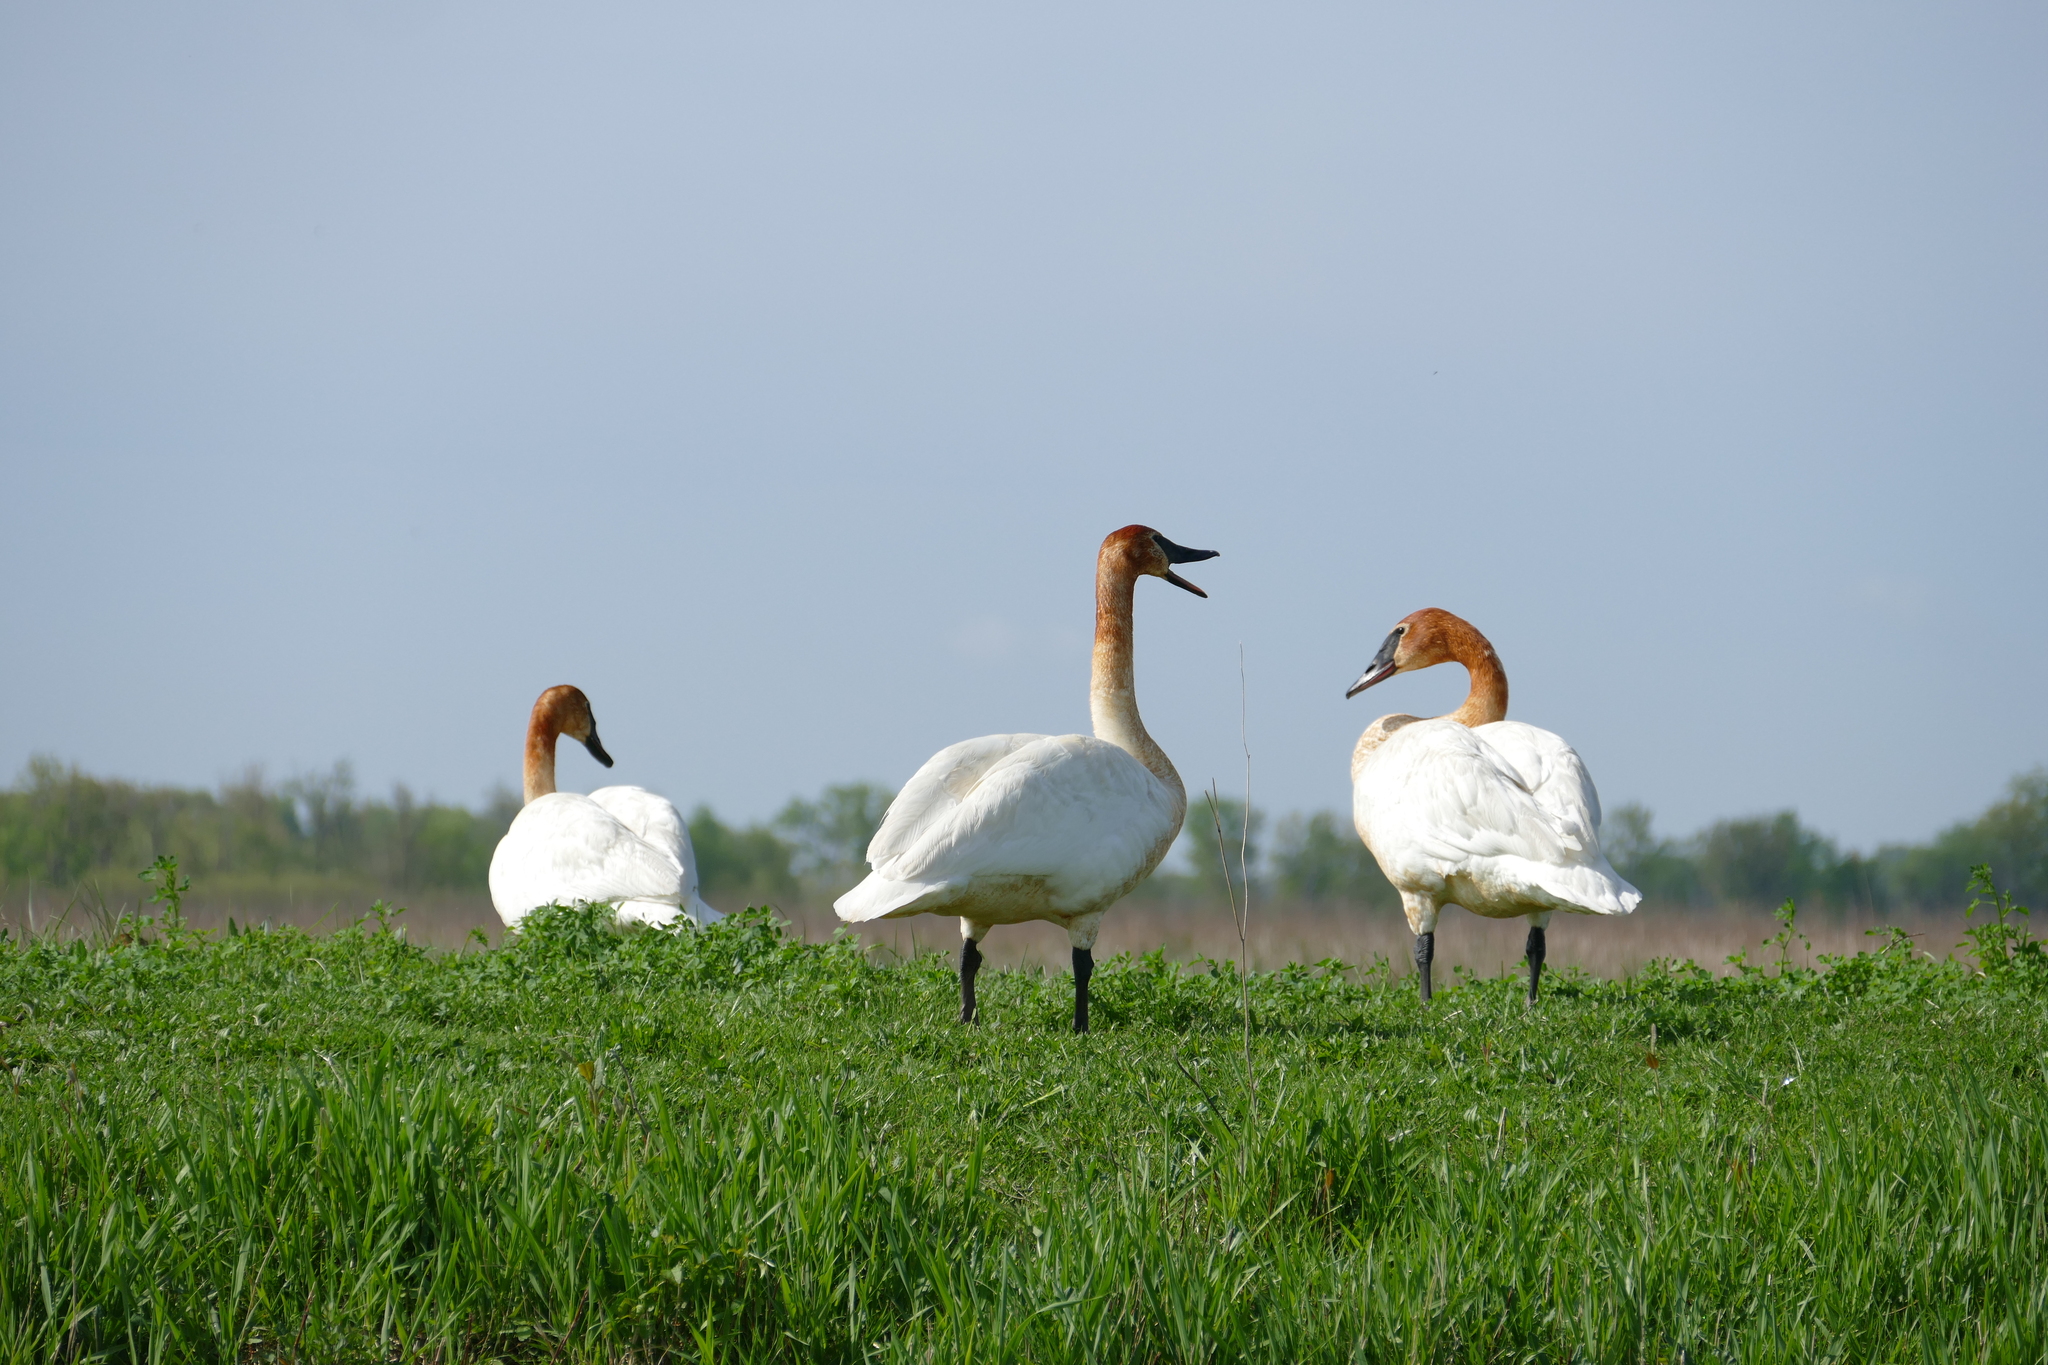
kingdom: Animalia
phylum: Chordata
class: Aves
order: Anseriformes
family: Anatidae
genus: Cygnus
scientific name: Cygnus buccinator
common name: Trumpeter swan
